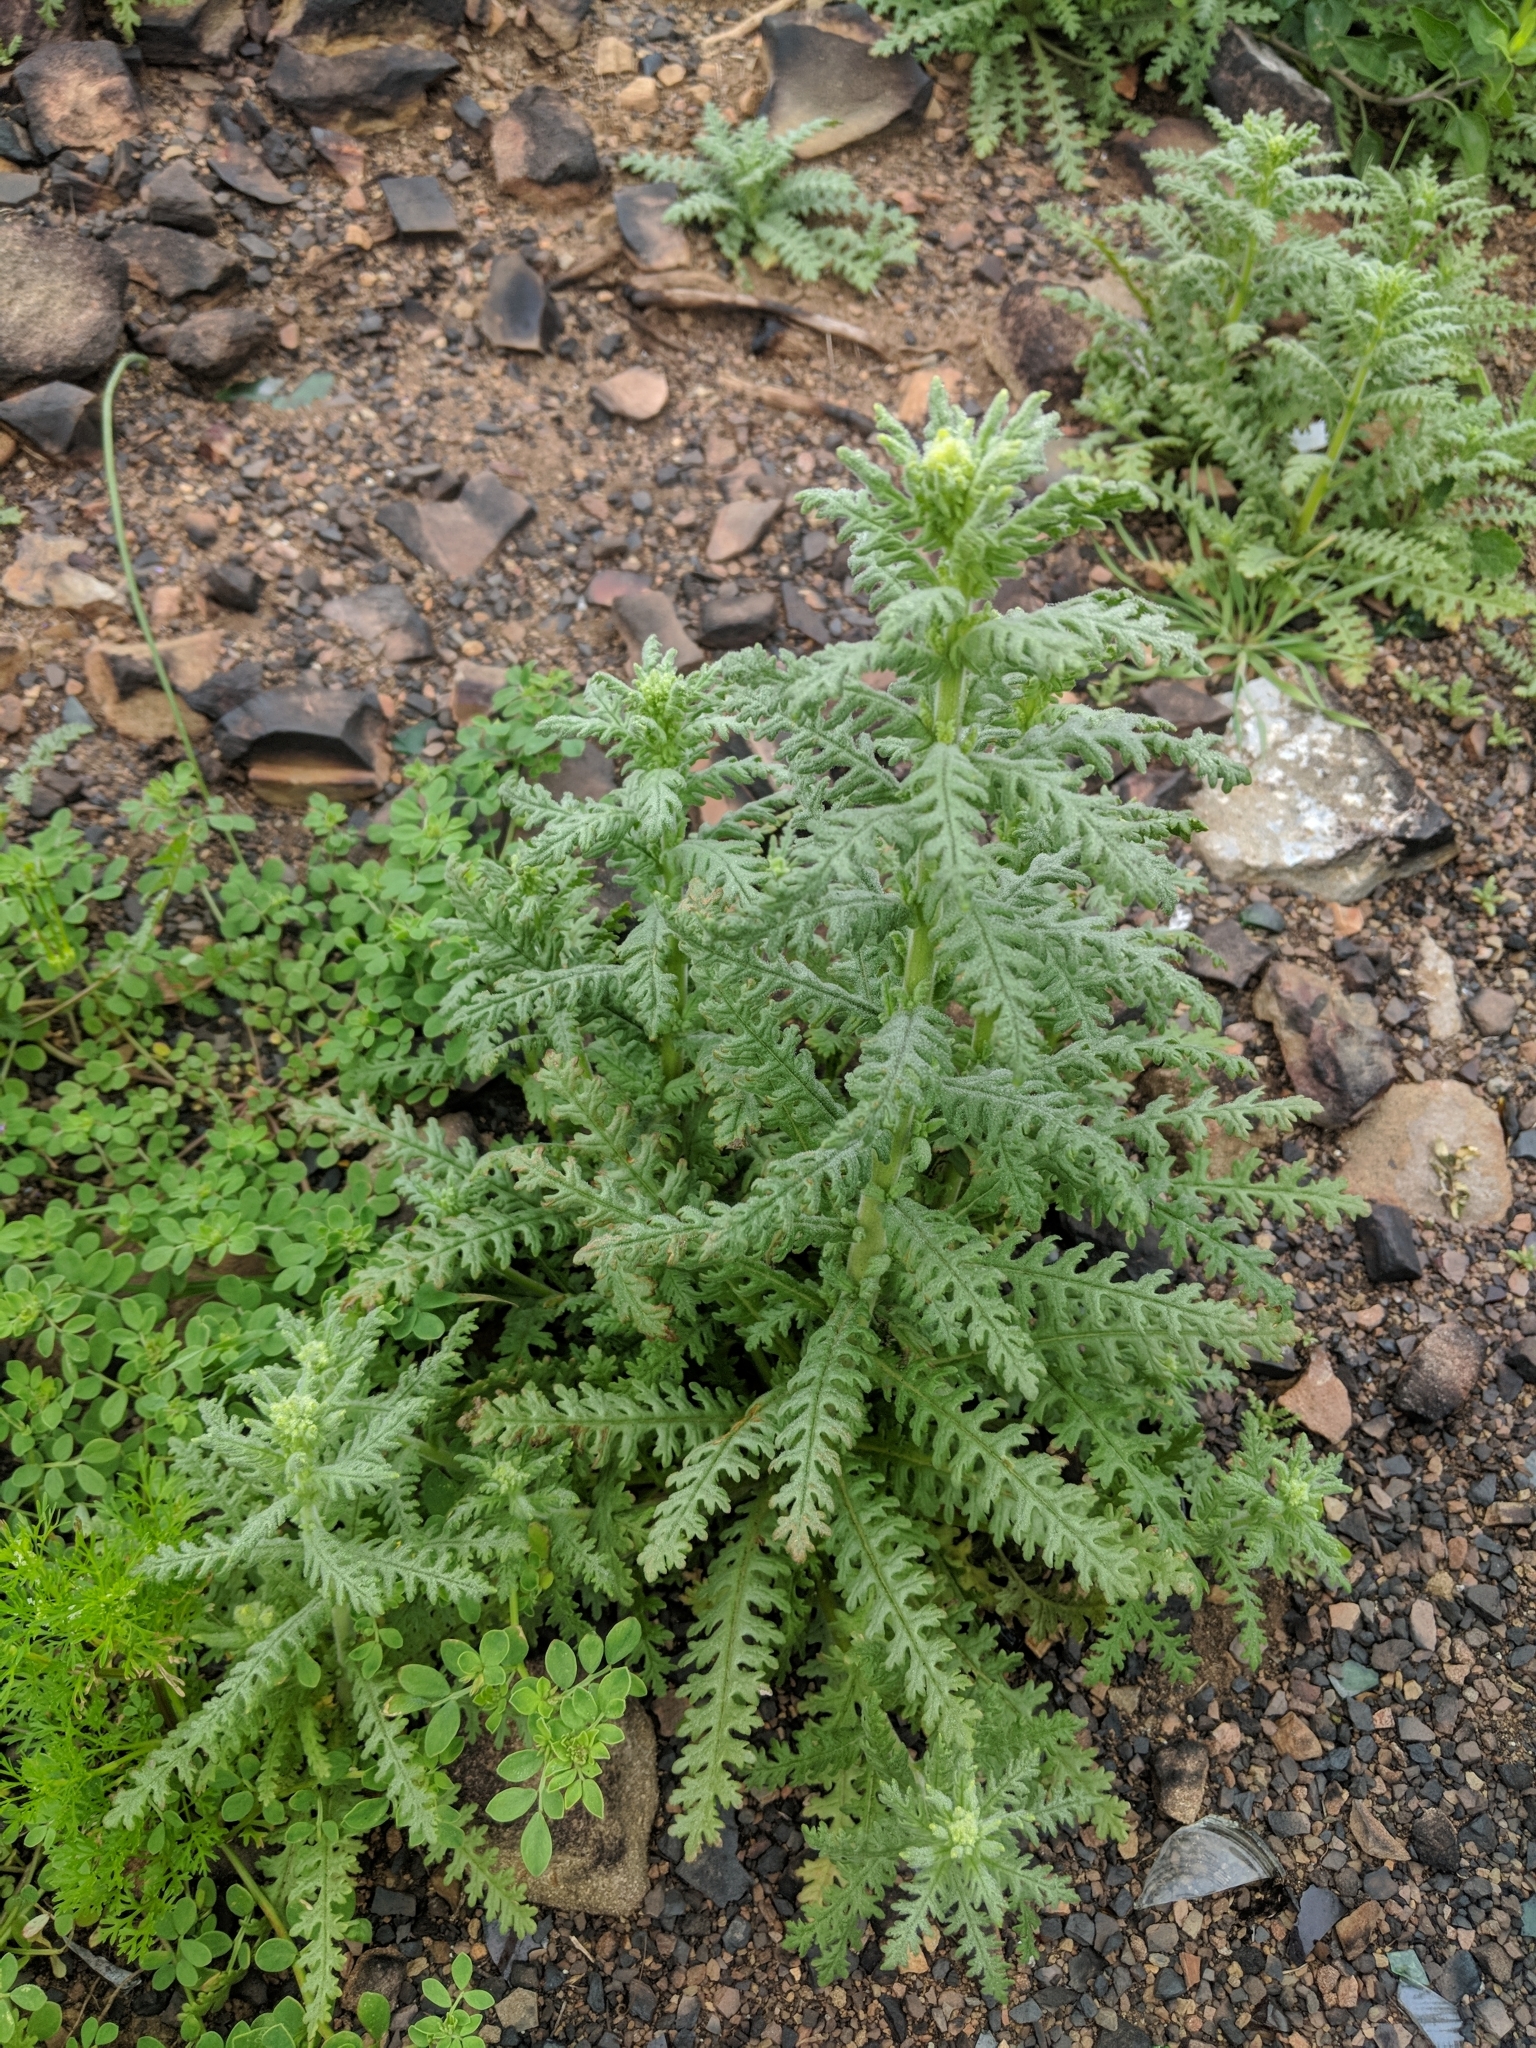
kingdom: Plantae
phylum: Tracheophyta
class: Magnoliopsida
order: Boraginales
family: Hydrophyllaceae
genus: Emmenanthe
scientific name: Emmenanthe penduliflora
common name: Whispering-bells
